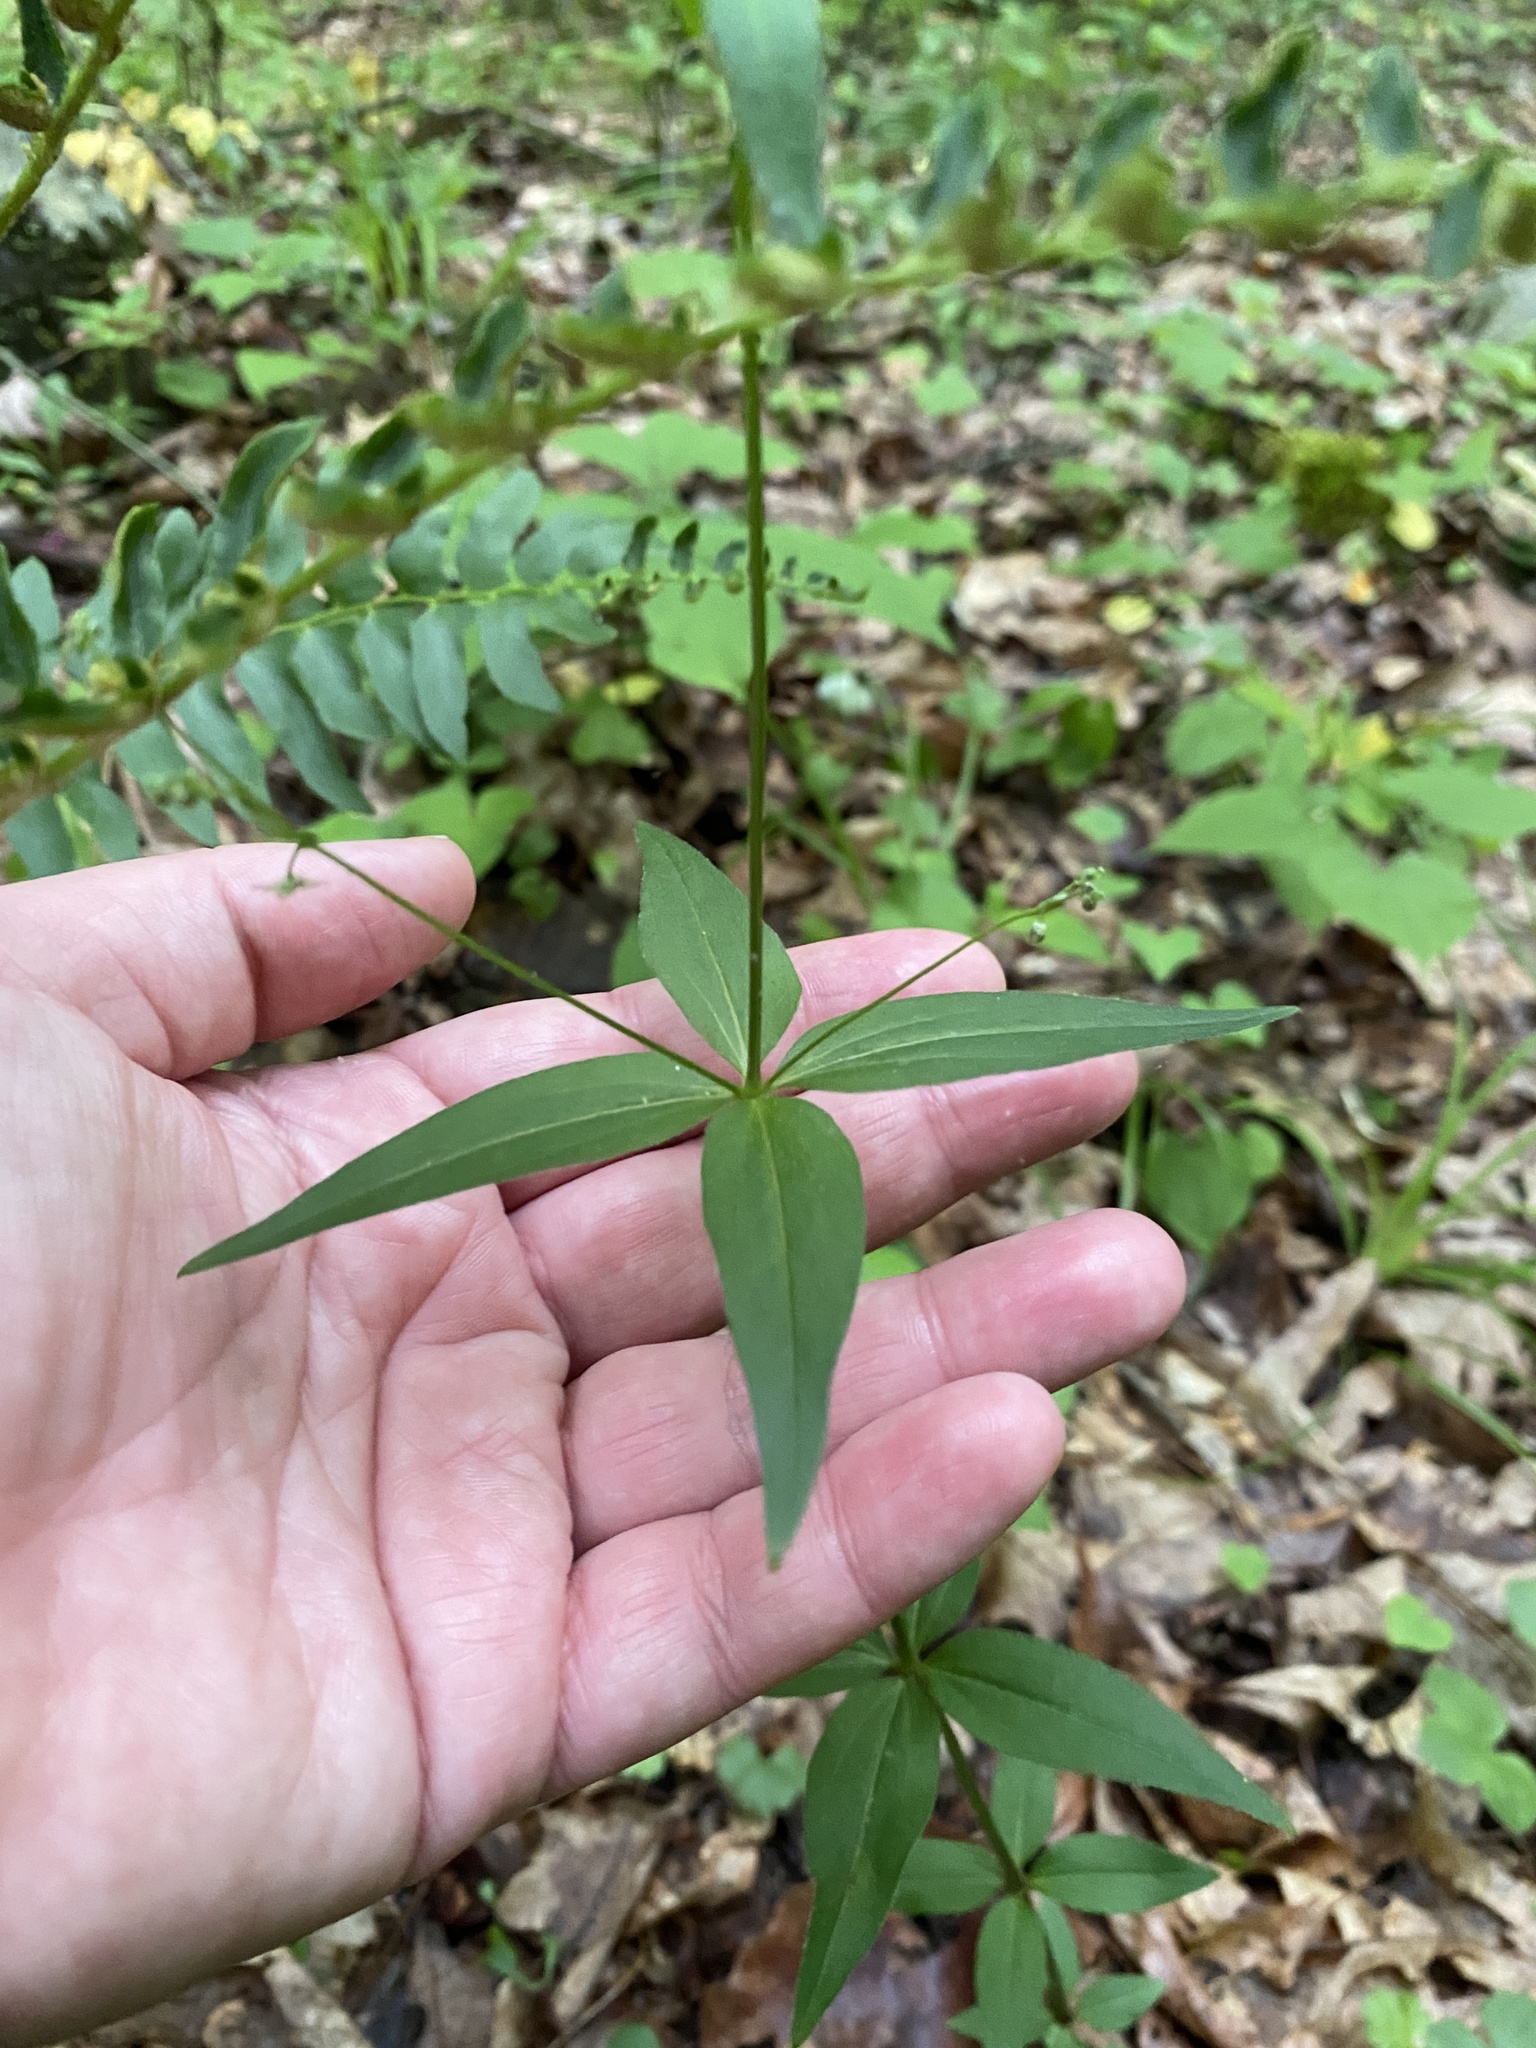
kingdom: Plantae
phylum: Tracheophyta
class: Magnoliopsida
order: Gentianales
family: Rubiaceae
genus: Galium
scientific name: Galium lanceolatum
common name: Lance-leaved wild licorice
